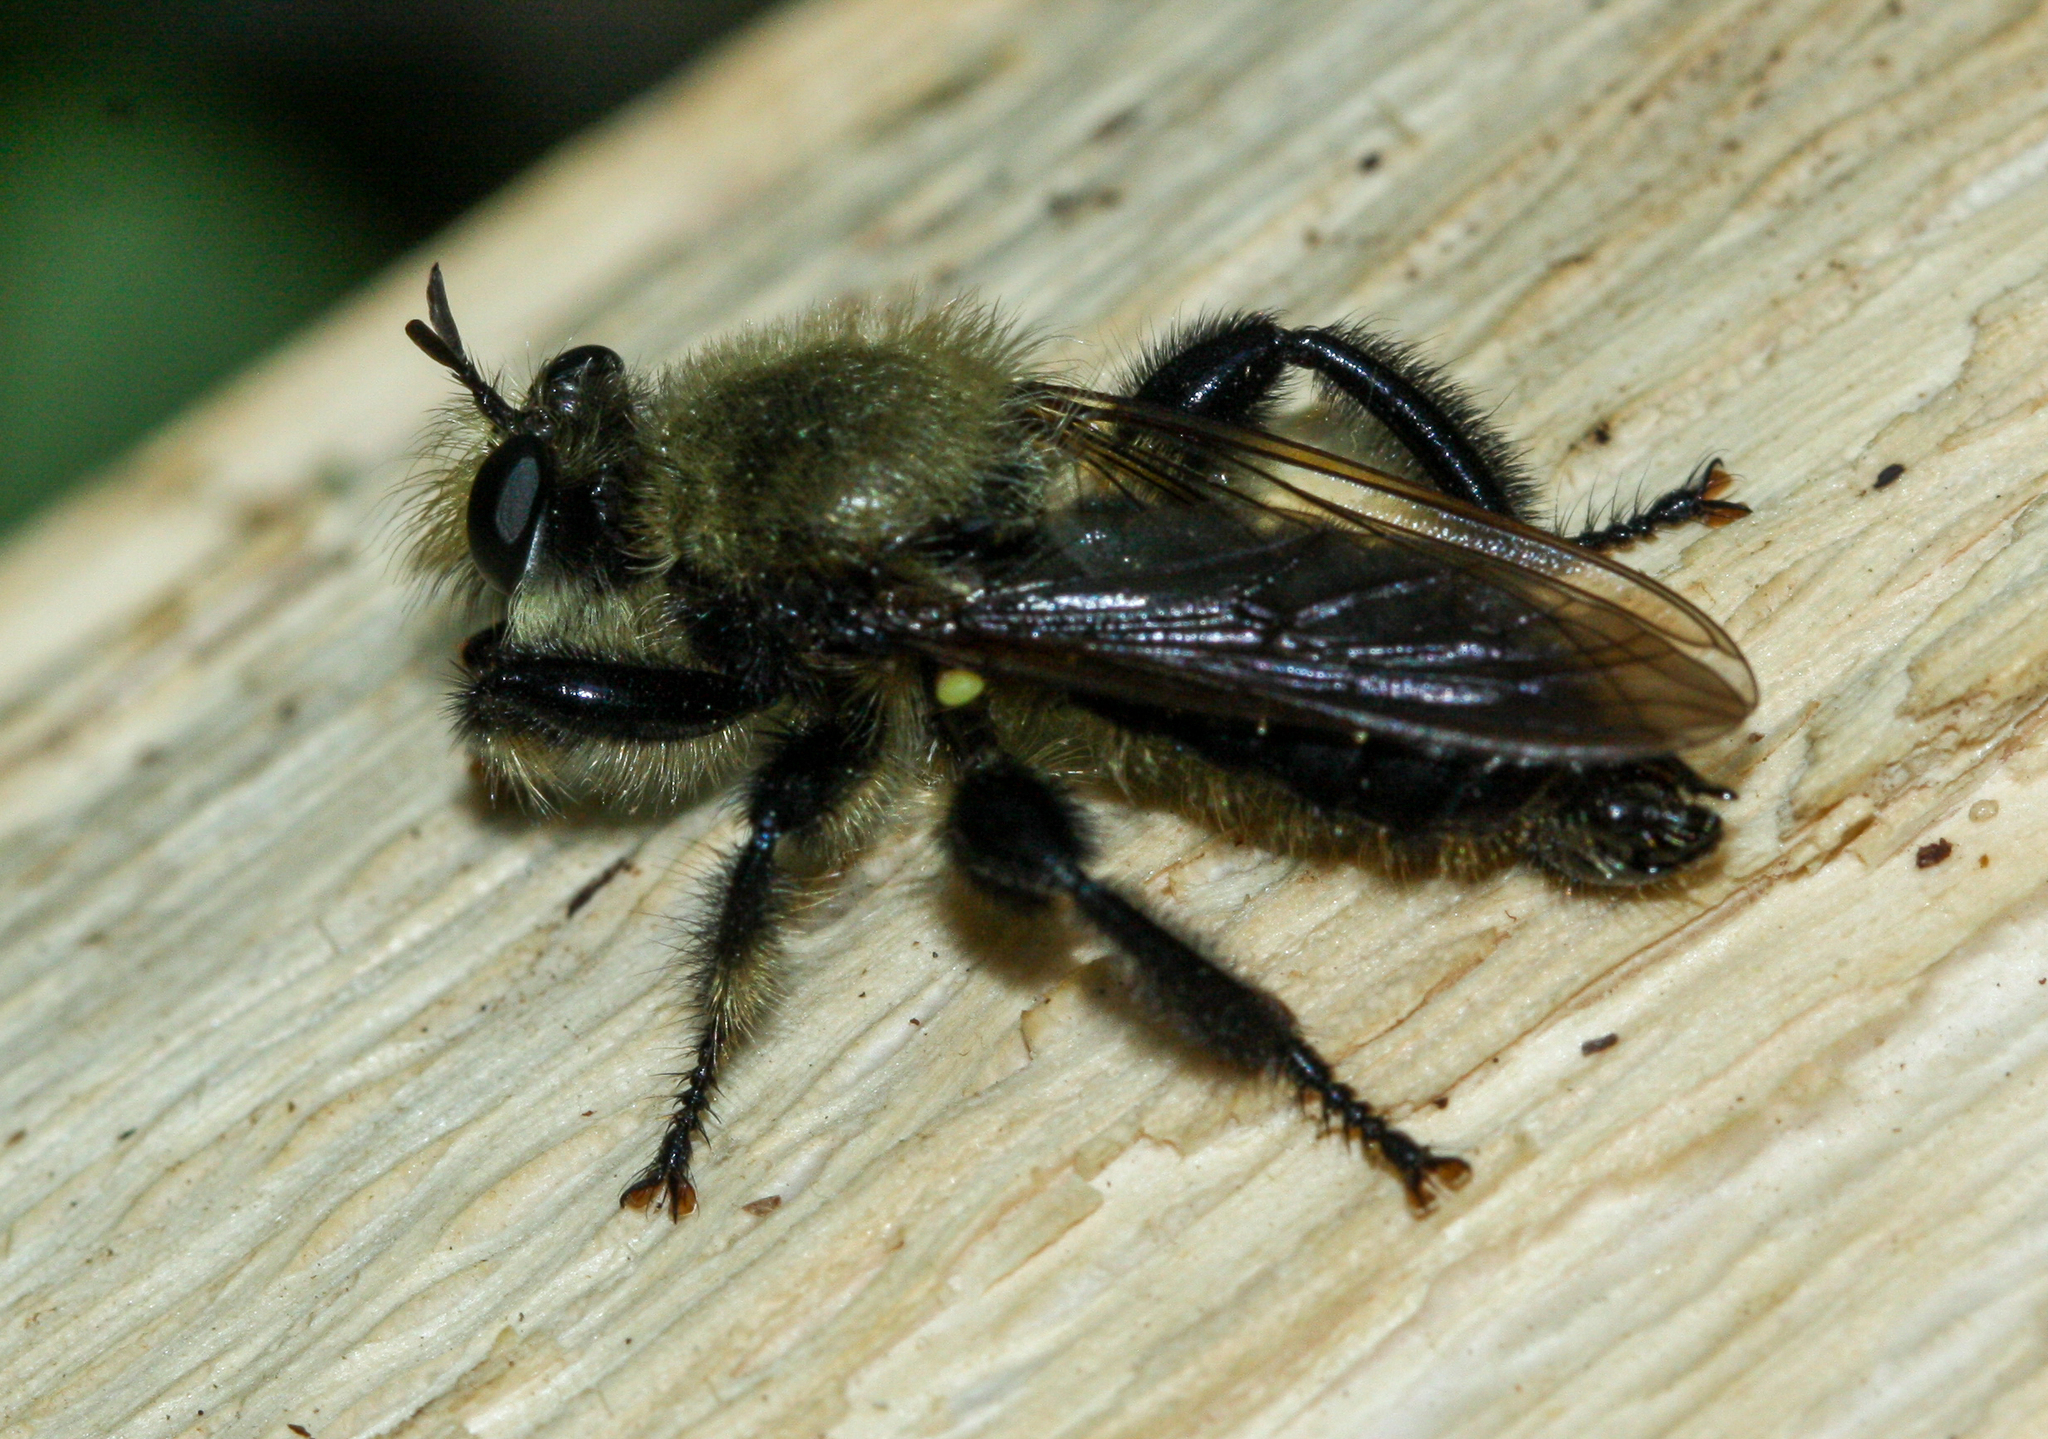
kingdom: Animalia
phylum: Arthropoda
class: Insecta
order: Diptera
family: Asilidae
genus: Laphria
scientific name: Laphria flavicollis
